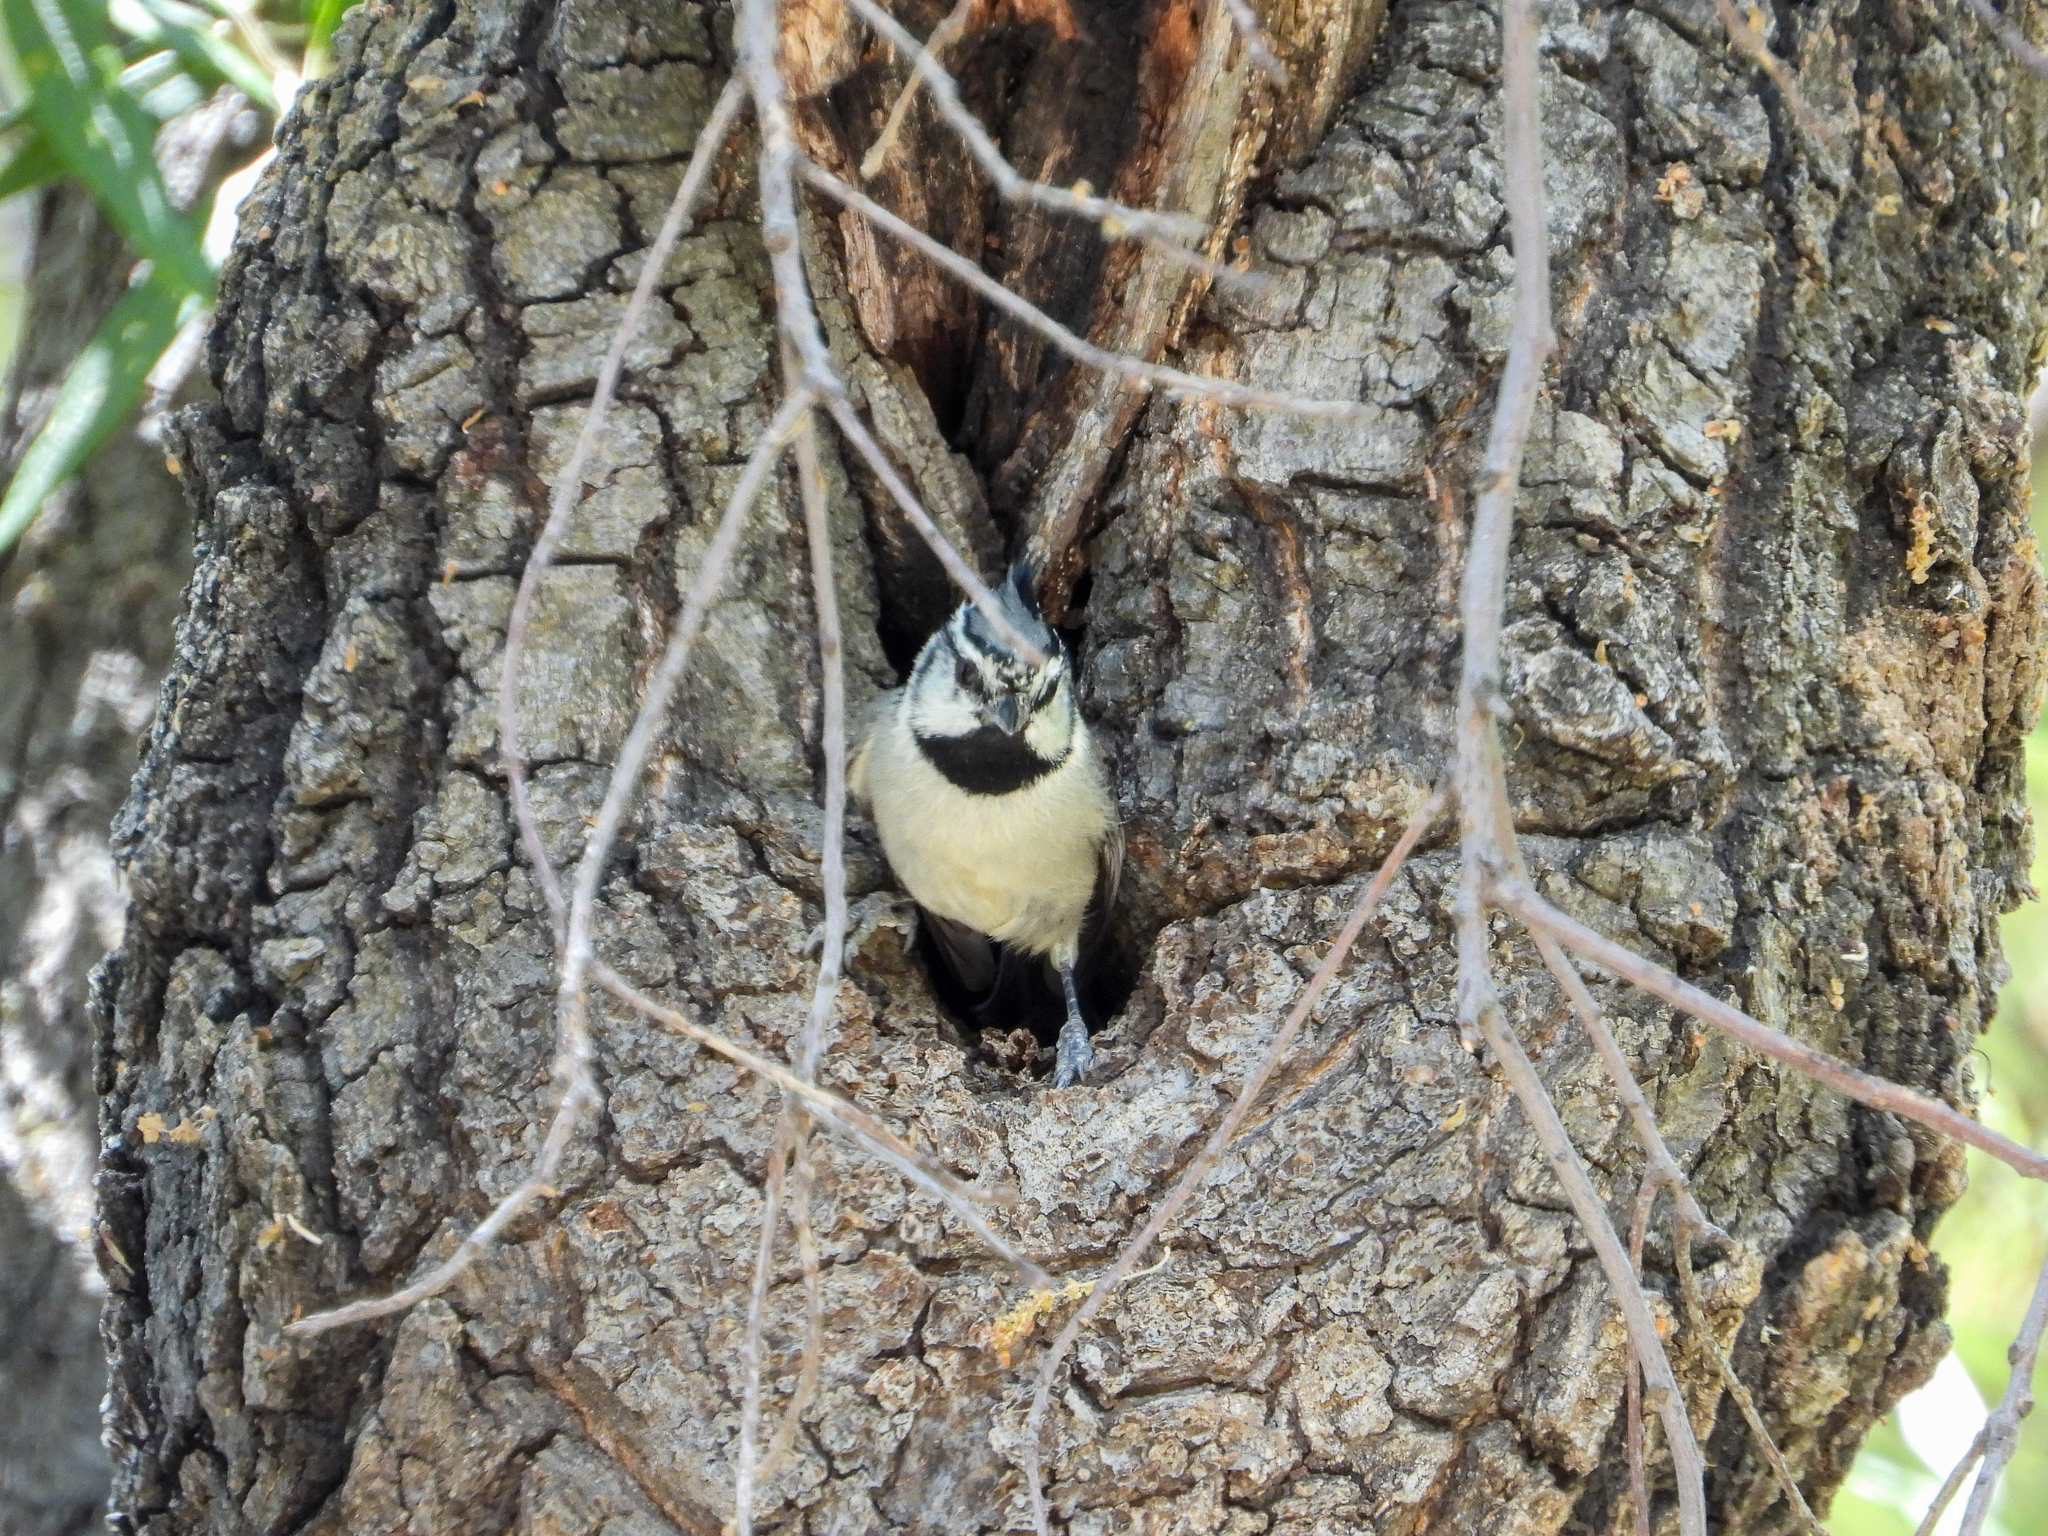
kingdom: Animalia
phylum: Chordata
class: Aves
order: Passeriformes
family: Paridae
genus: Baeolophus
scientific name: Baeolophus wollweberi
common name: Bridled titmouse
